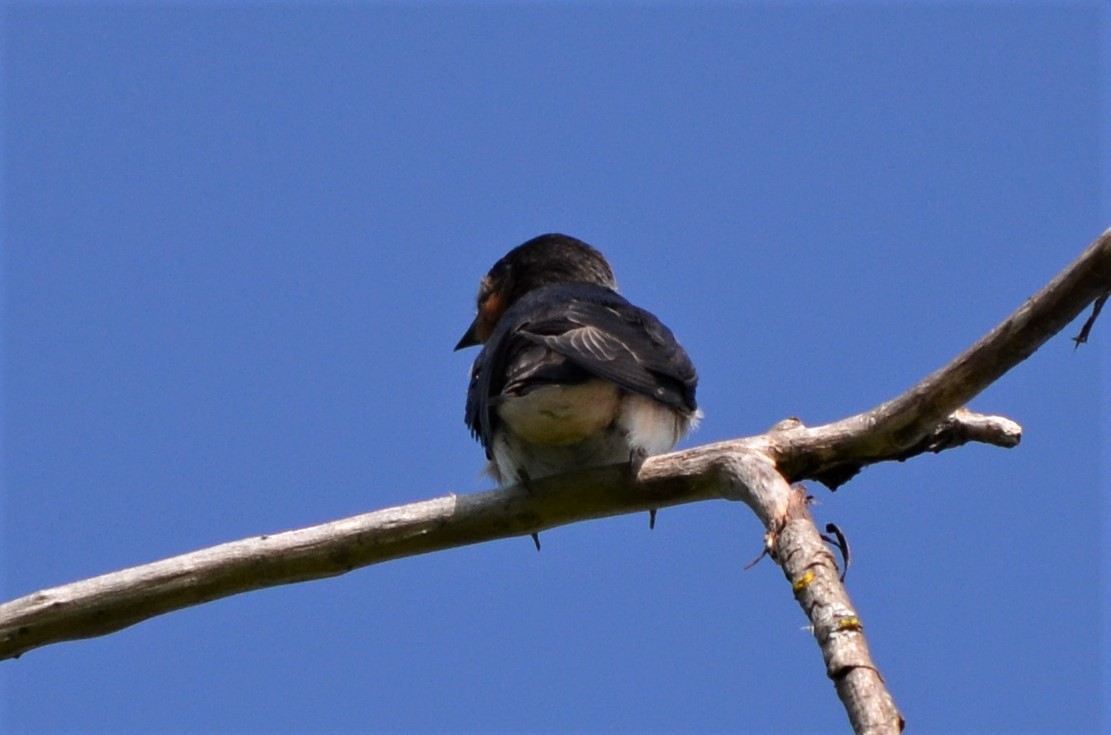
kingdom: Animalia
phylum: Chordata
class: Aves
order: Passeriformes
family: Hirundinidae
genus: Hirundo
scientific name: Hirundo rustica
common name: Barn swallow
